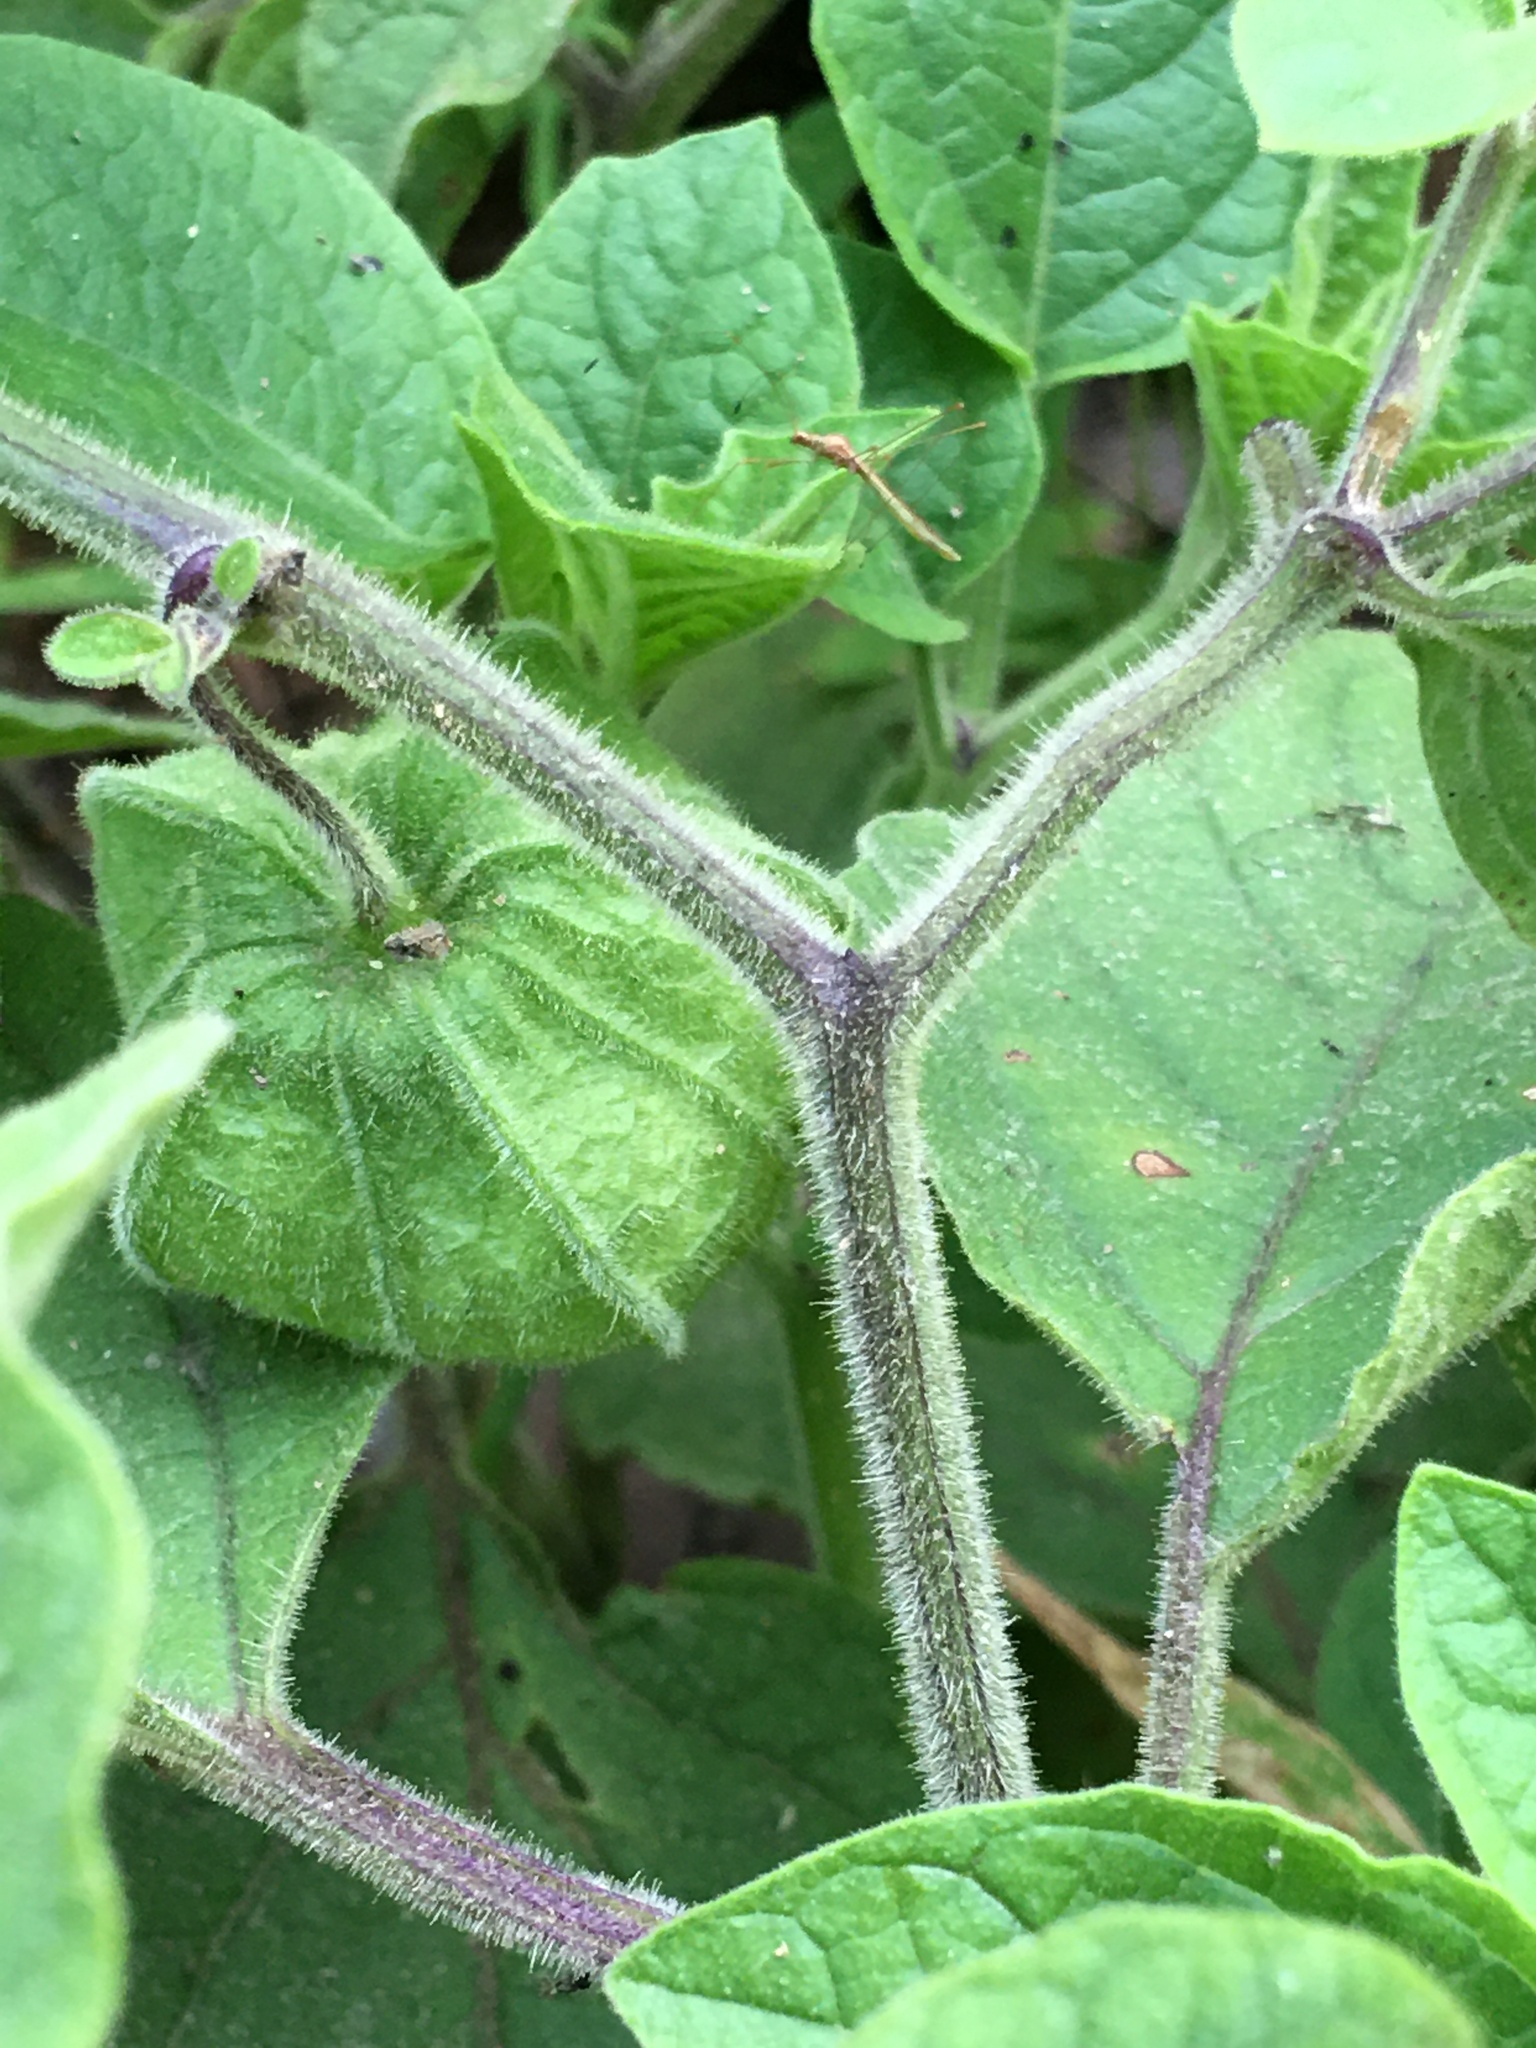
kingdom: Plantae
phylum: Tracheophyta
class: Magnoliopsida
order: Solanales
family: Solanaceae
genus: Physalis
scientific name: Physalis heterophylla
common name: Clammy ground-cherry
